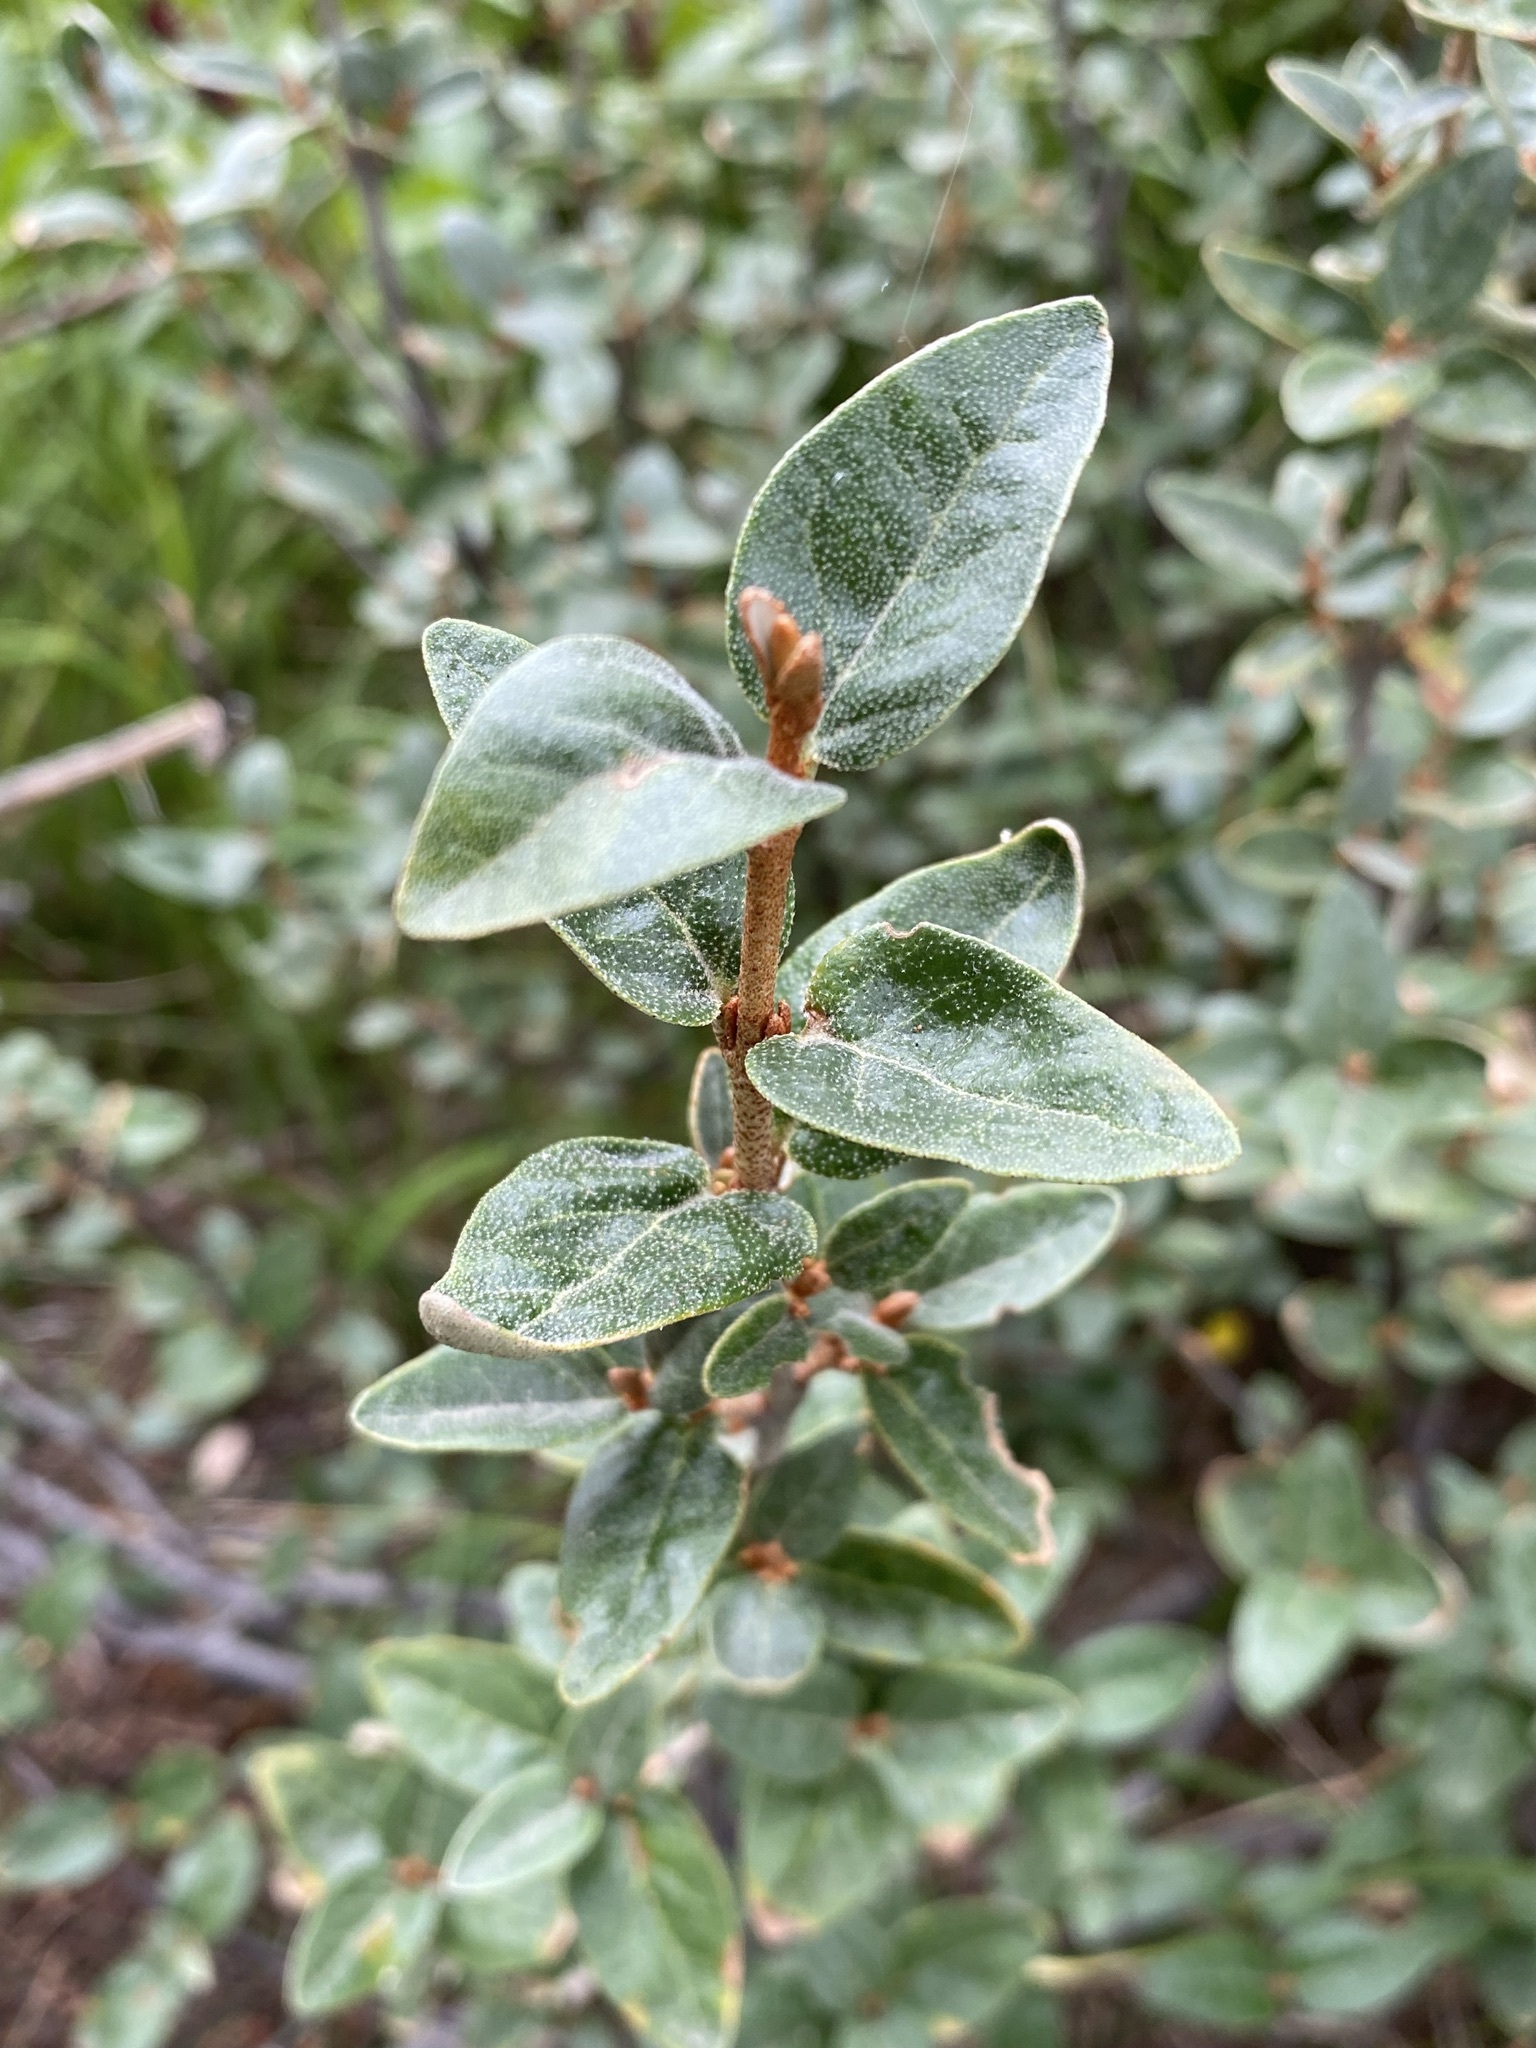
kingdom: Plantae
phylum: Tracheophyta
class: Magnoliopsida
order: Rosales
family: Elaeagnaceae
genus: Shepherdia
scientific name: Shepherdia canadensis
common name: Soapberry
